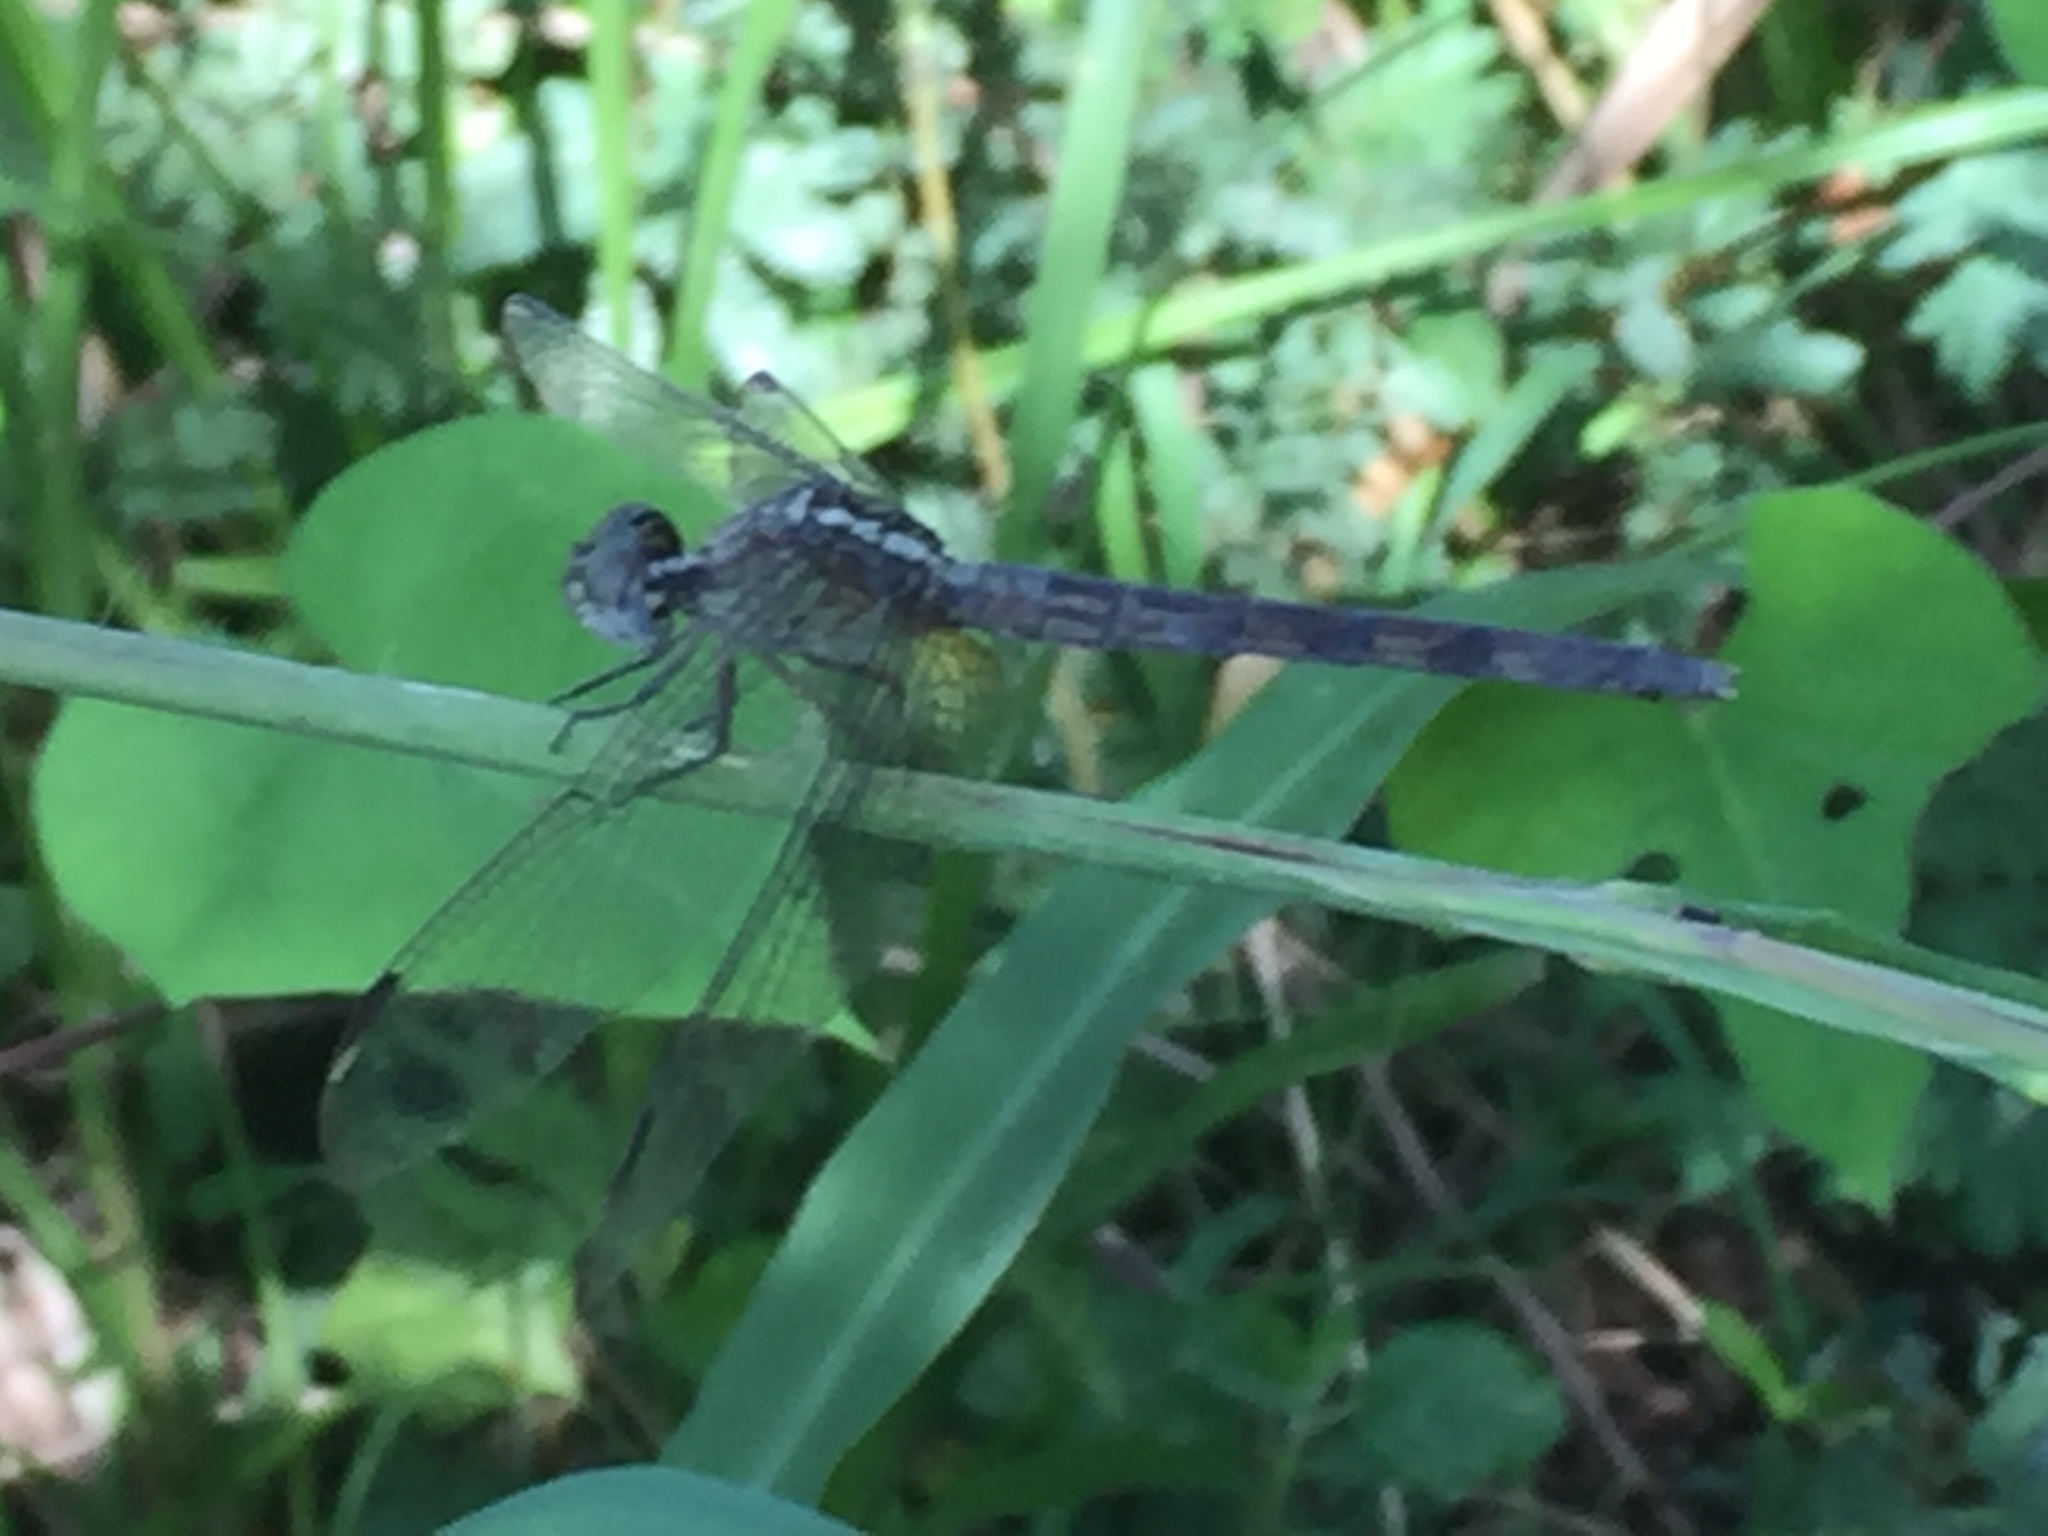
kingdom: Animalia
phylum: Arthropoda
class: Insecta
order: Odonata
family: Libellulidae
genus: Erythrodiplax
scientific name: Erythrodiplax umbrata
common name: Band-winged dragonlet
